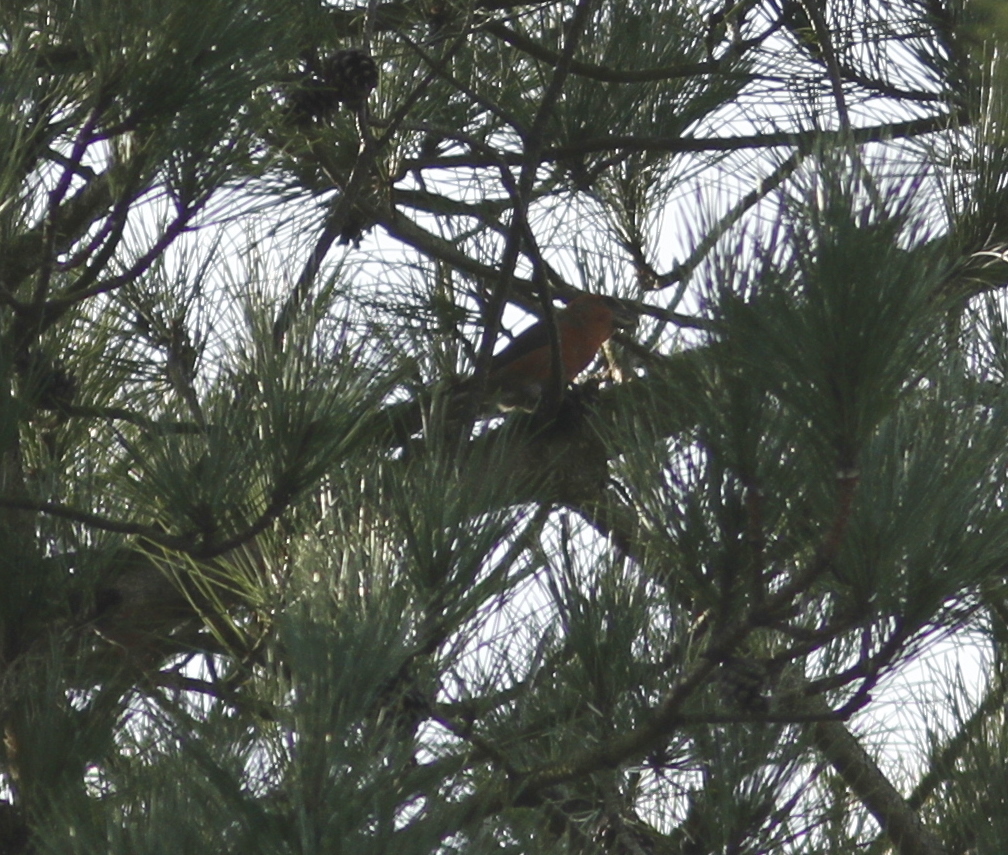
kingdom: Animalia
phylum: Chordata
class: Aves
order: Passeriformes
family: Fringillidae
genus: Loxia
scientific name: Loxia pytyopsittacus
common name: Parrot crossbill
